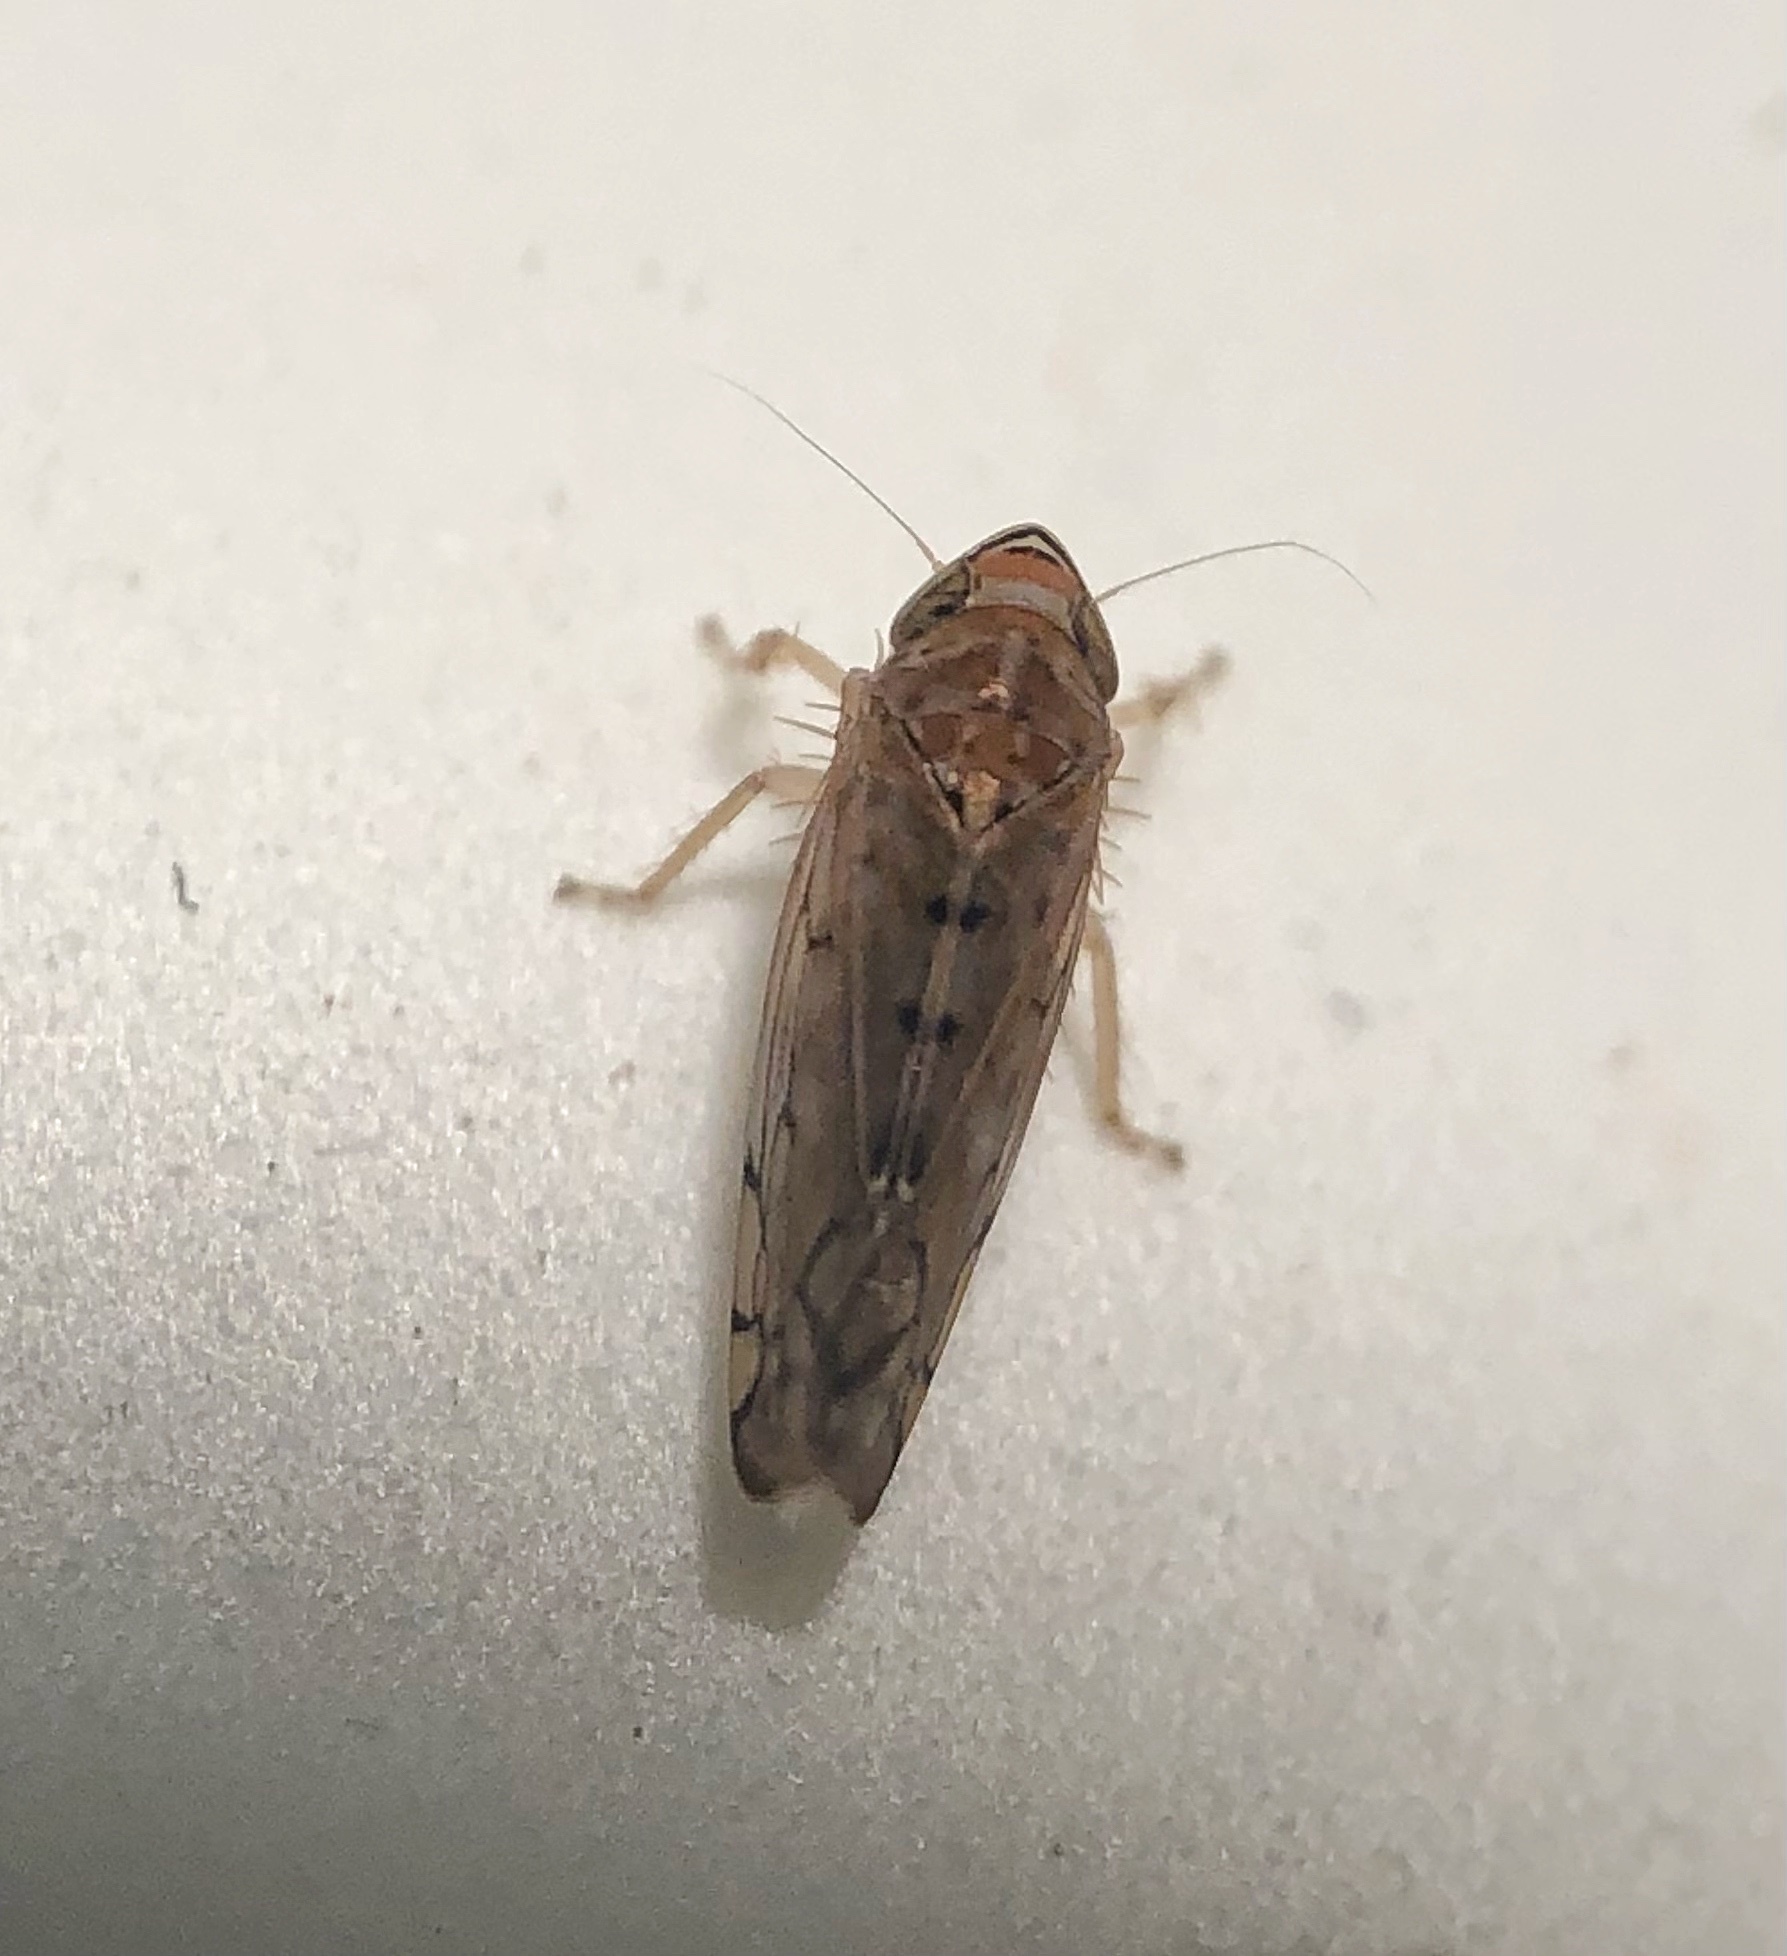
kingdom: Animalia
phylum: Arthropoda
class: Insecta
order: Hemiptera
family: Cicadellidae
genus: Osbornellus
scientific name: Osbornellus
